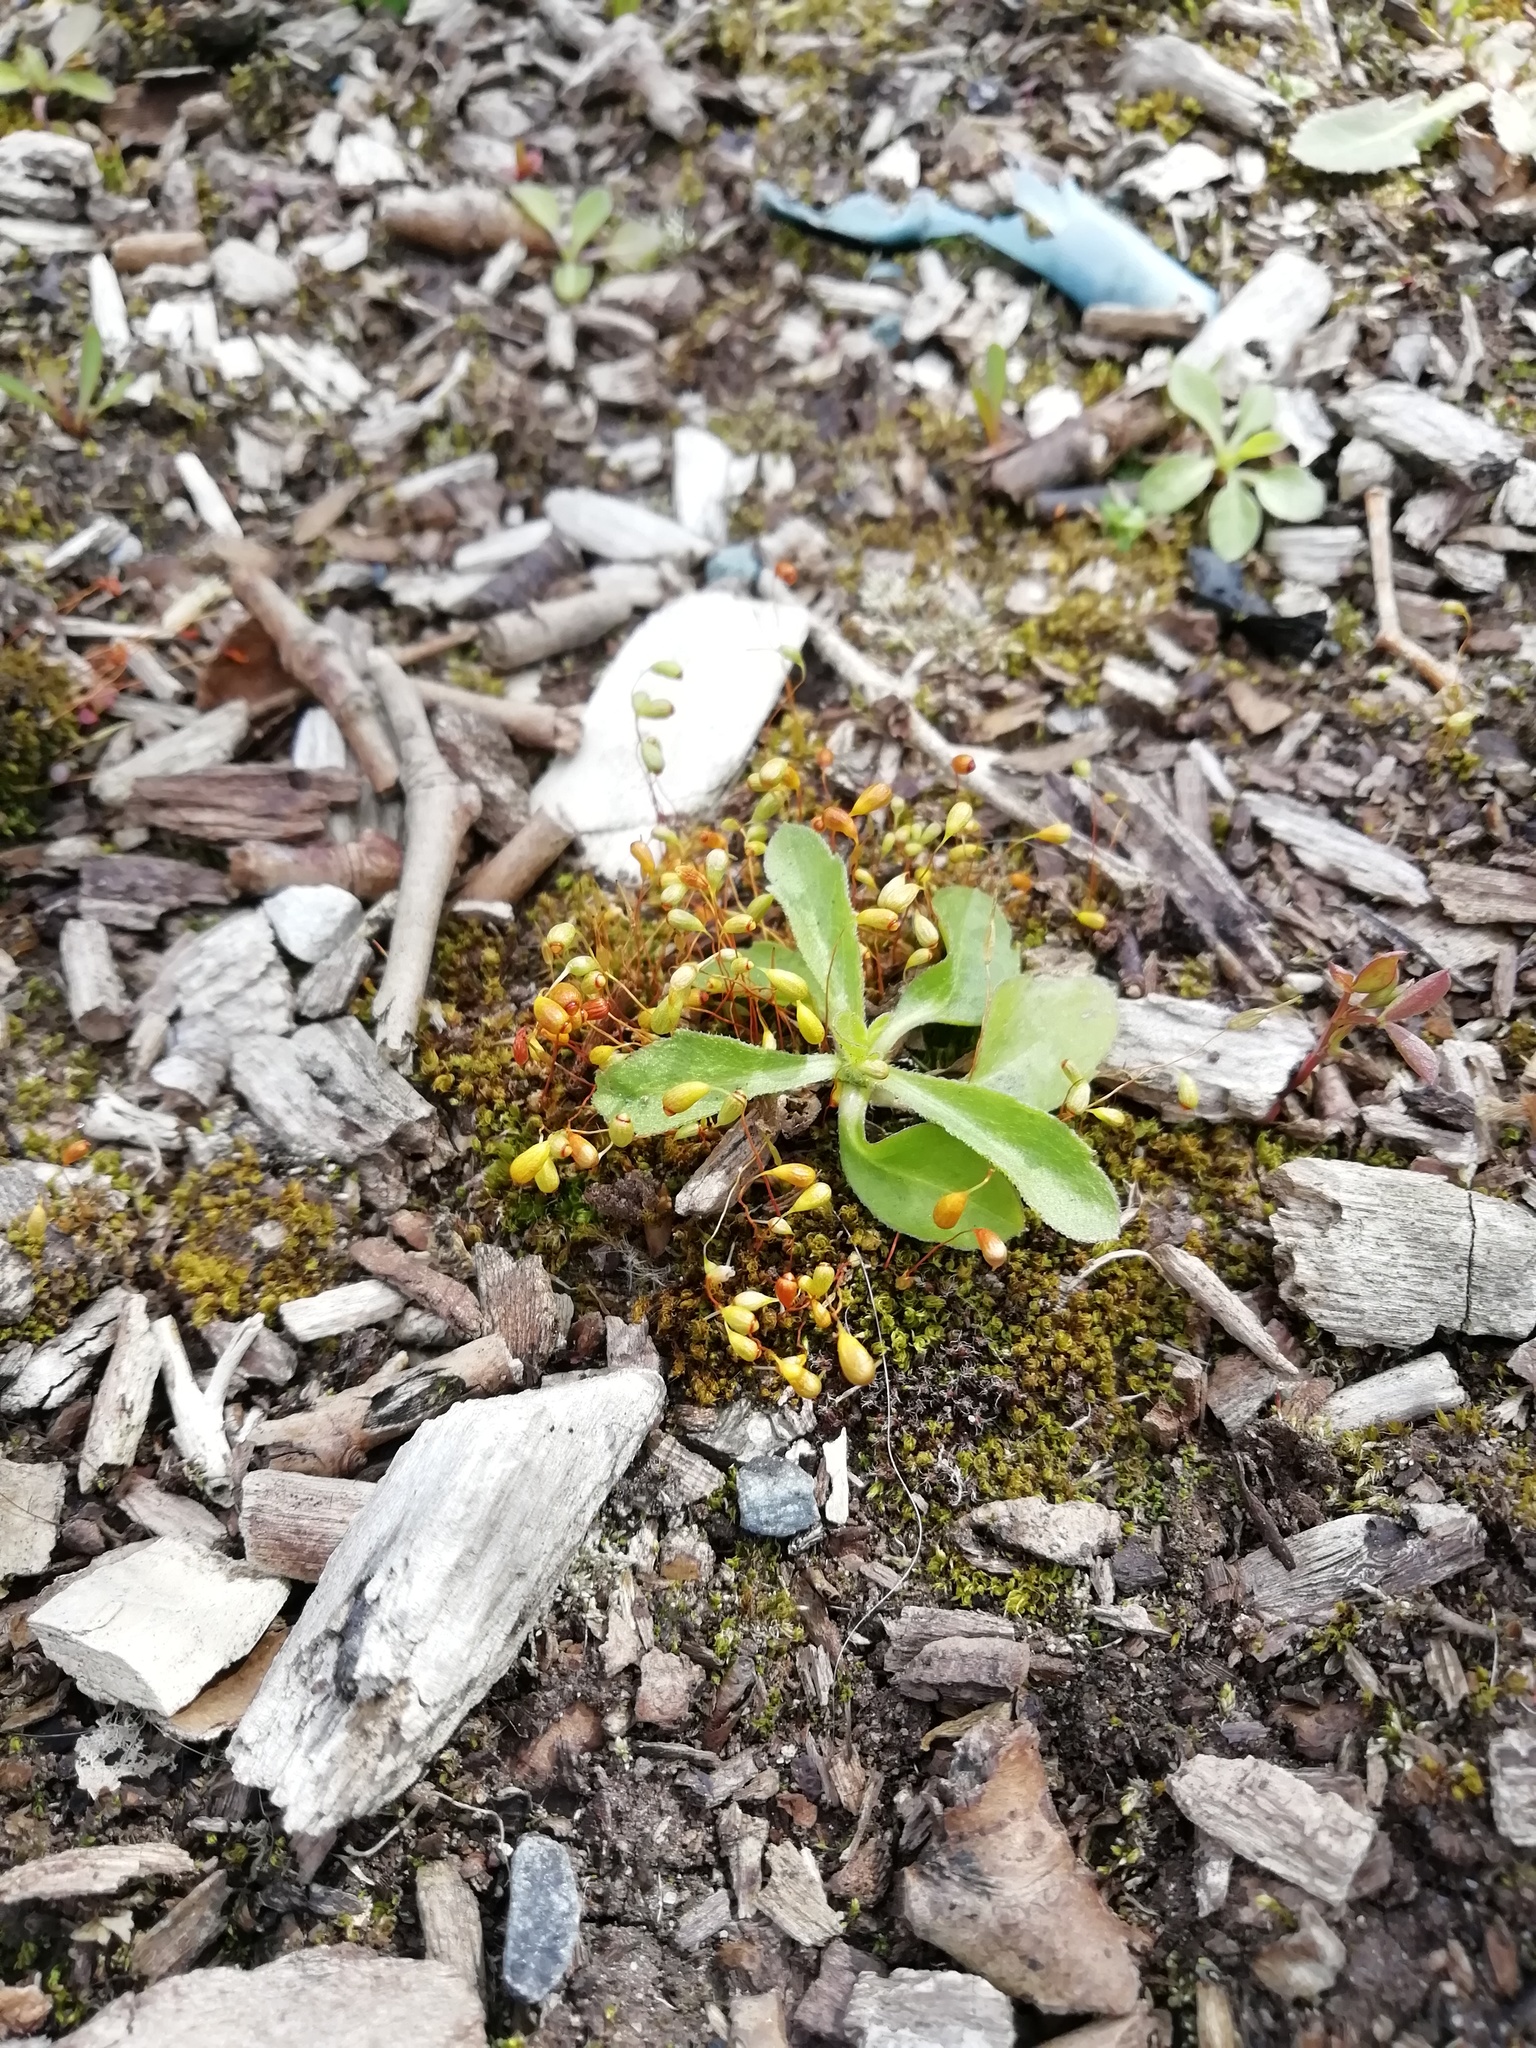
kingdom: Plantae
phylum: Bryophyta
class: Bryopsida
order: Funariales
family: Funariaceae
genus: Funaria
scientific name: Funaria hygrometrica
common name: Common cord moss
